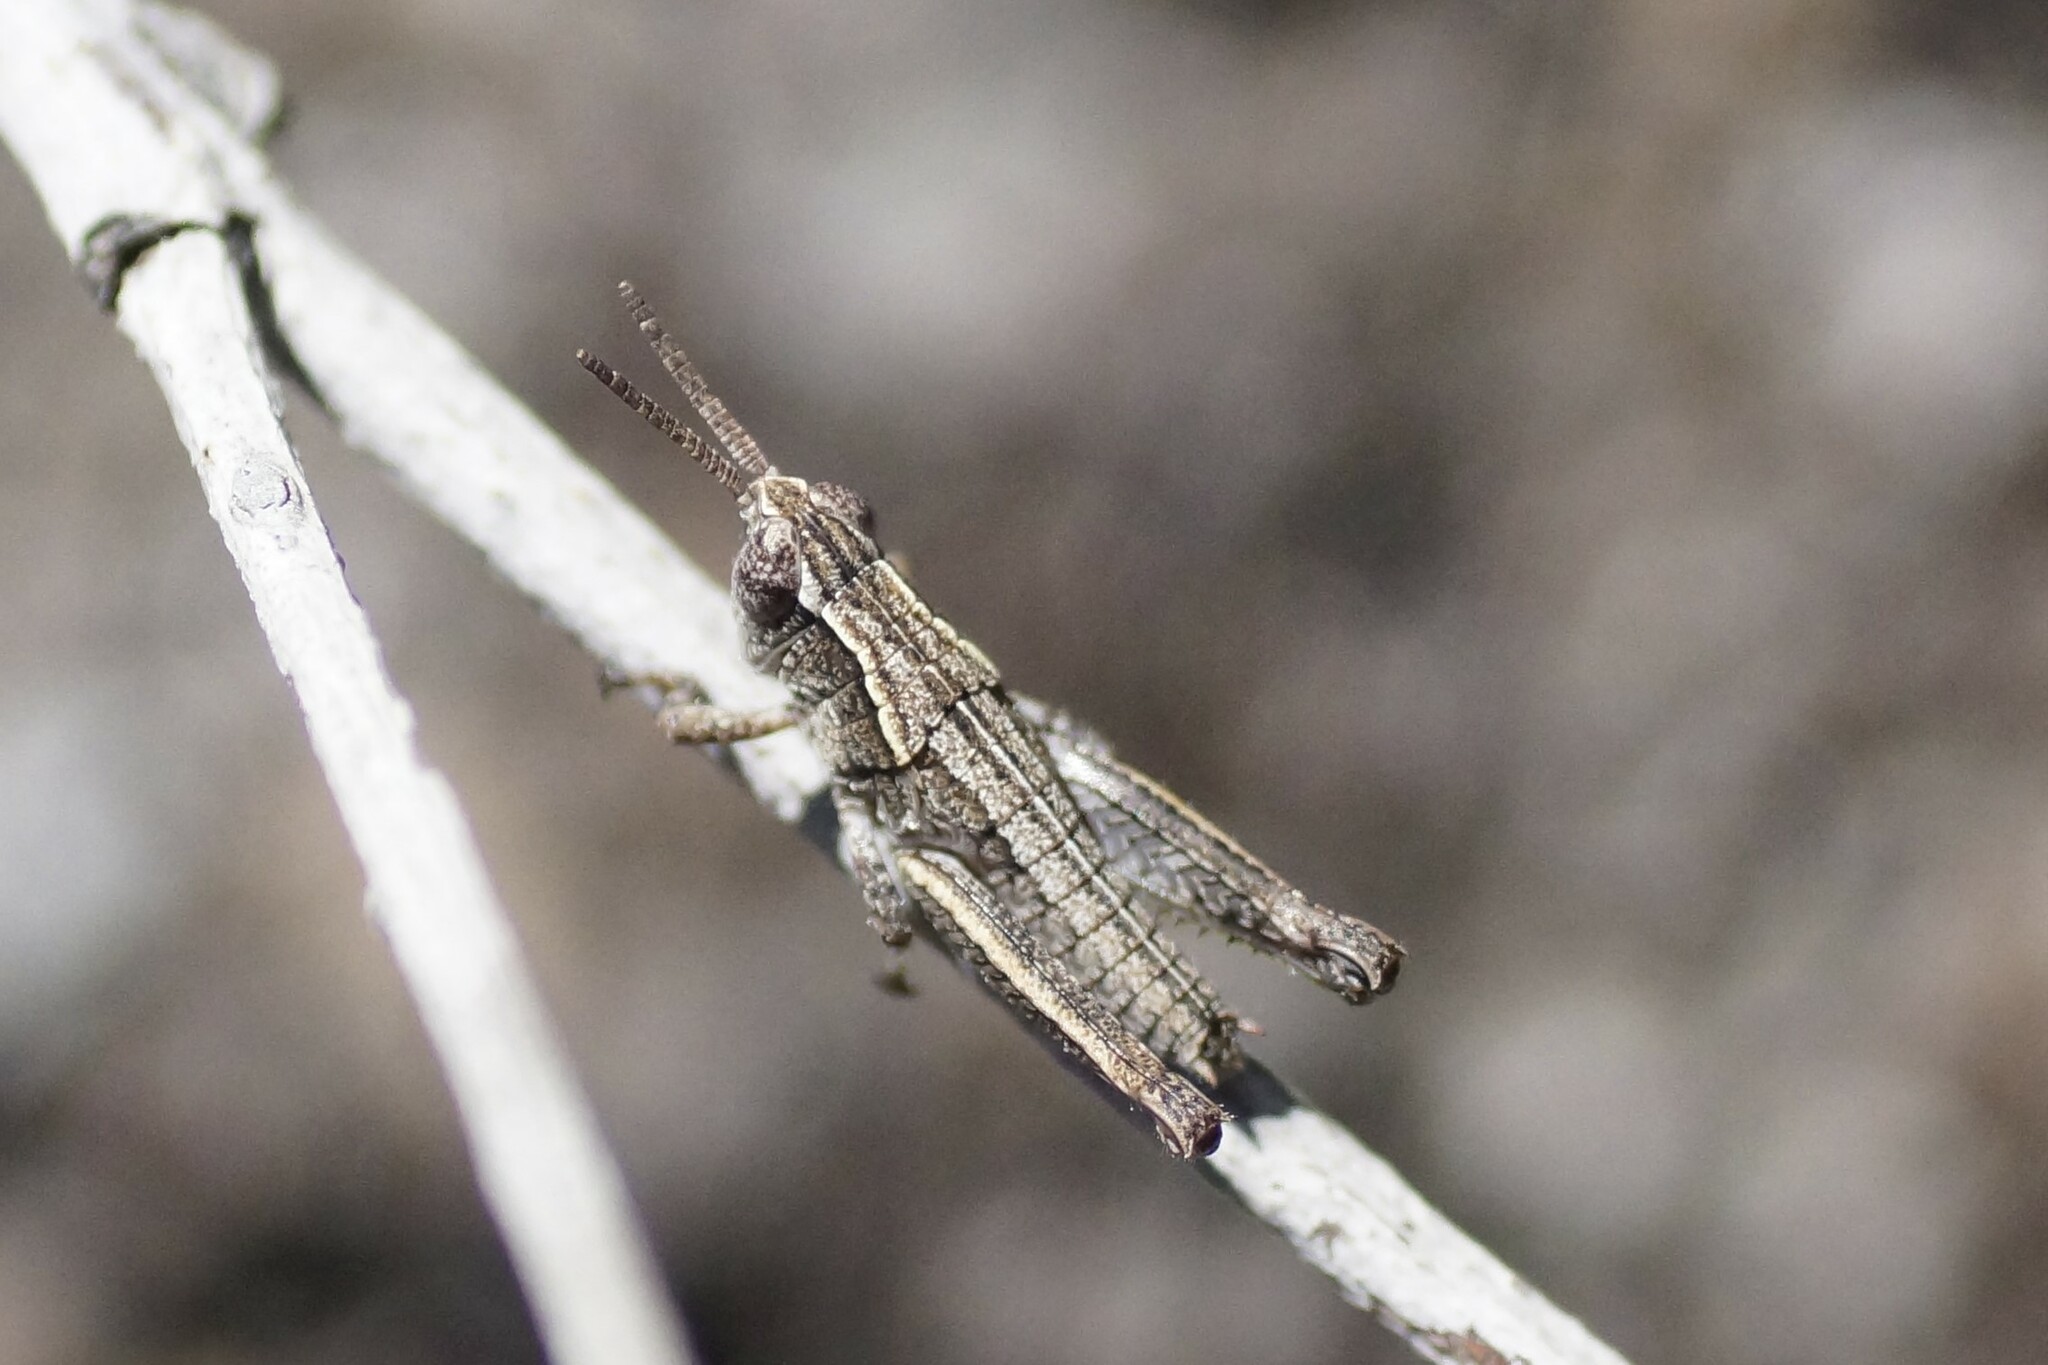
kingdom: Animalia
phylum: Arthropoda
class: Insecta
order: Orthoptera
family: Acrididae
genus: Tasmaniacris
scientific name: Tasmaniacris tasmaniensis
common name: Tasmanian grasshopper
